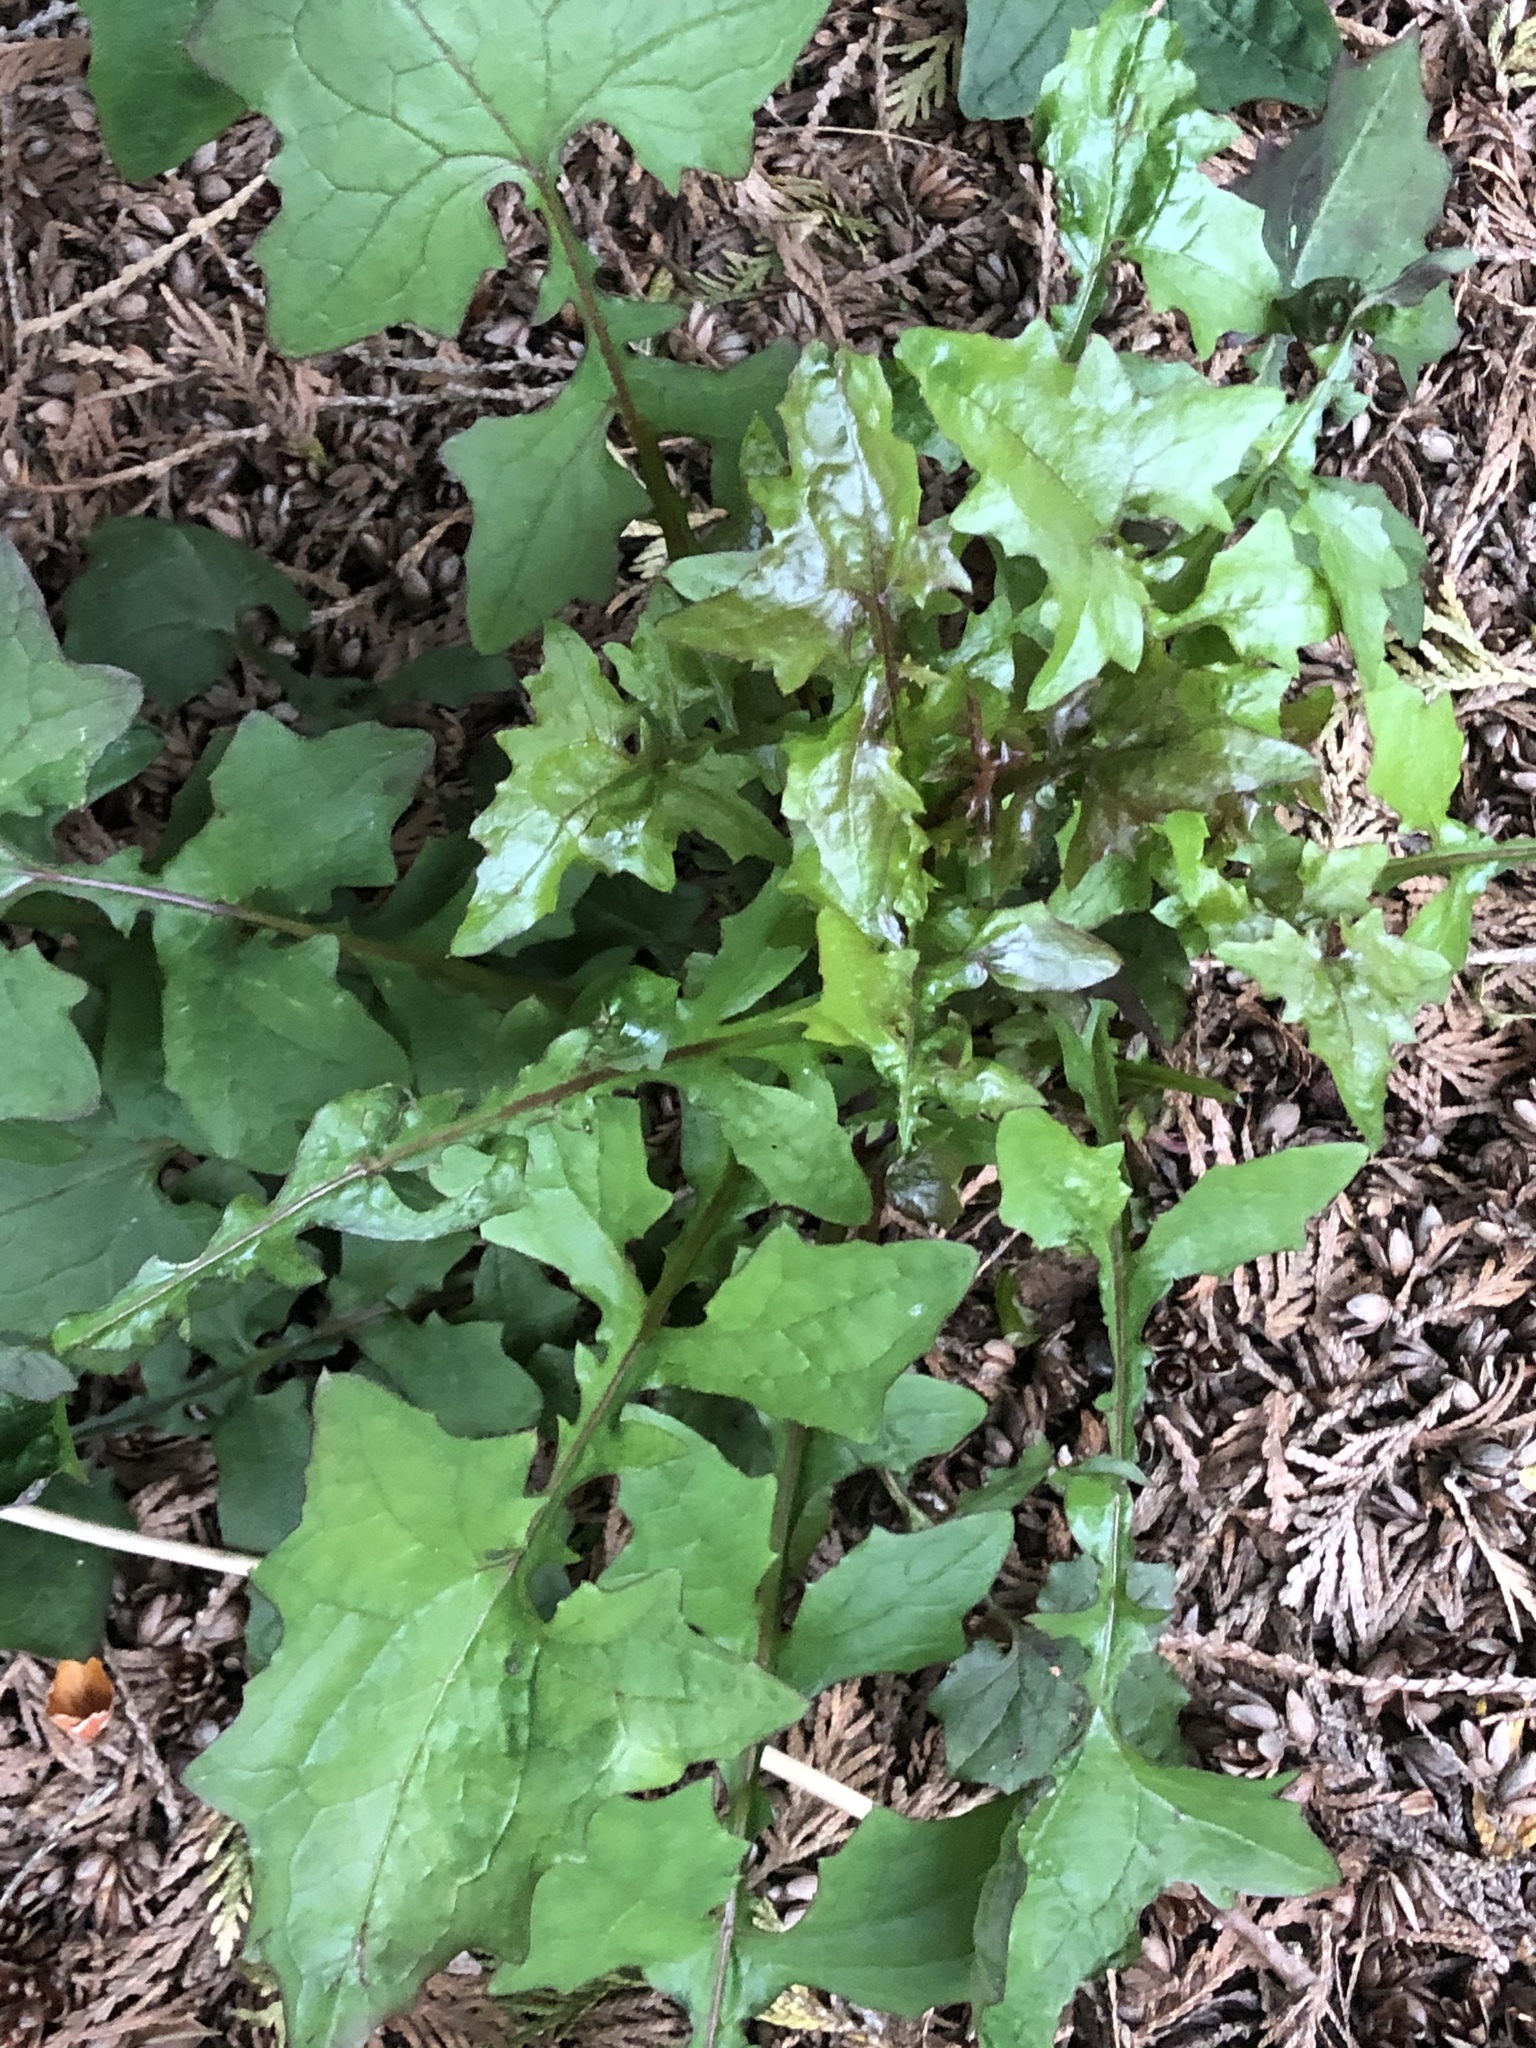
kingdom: Plantae
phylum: Tracheophyta
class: Magnoliopsida
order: Asterales
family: Asteraceae
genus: Mycelis
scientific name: Mycelis muralis
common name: Wall lettuce
